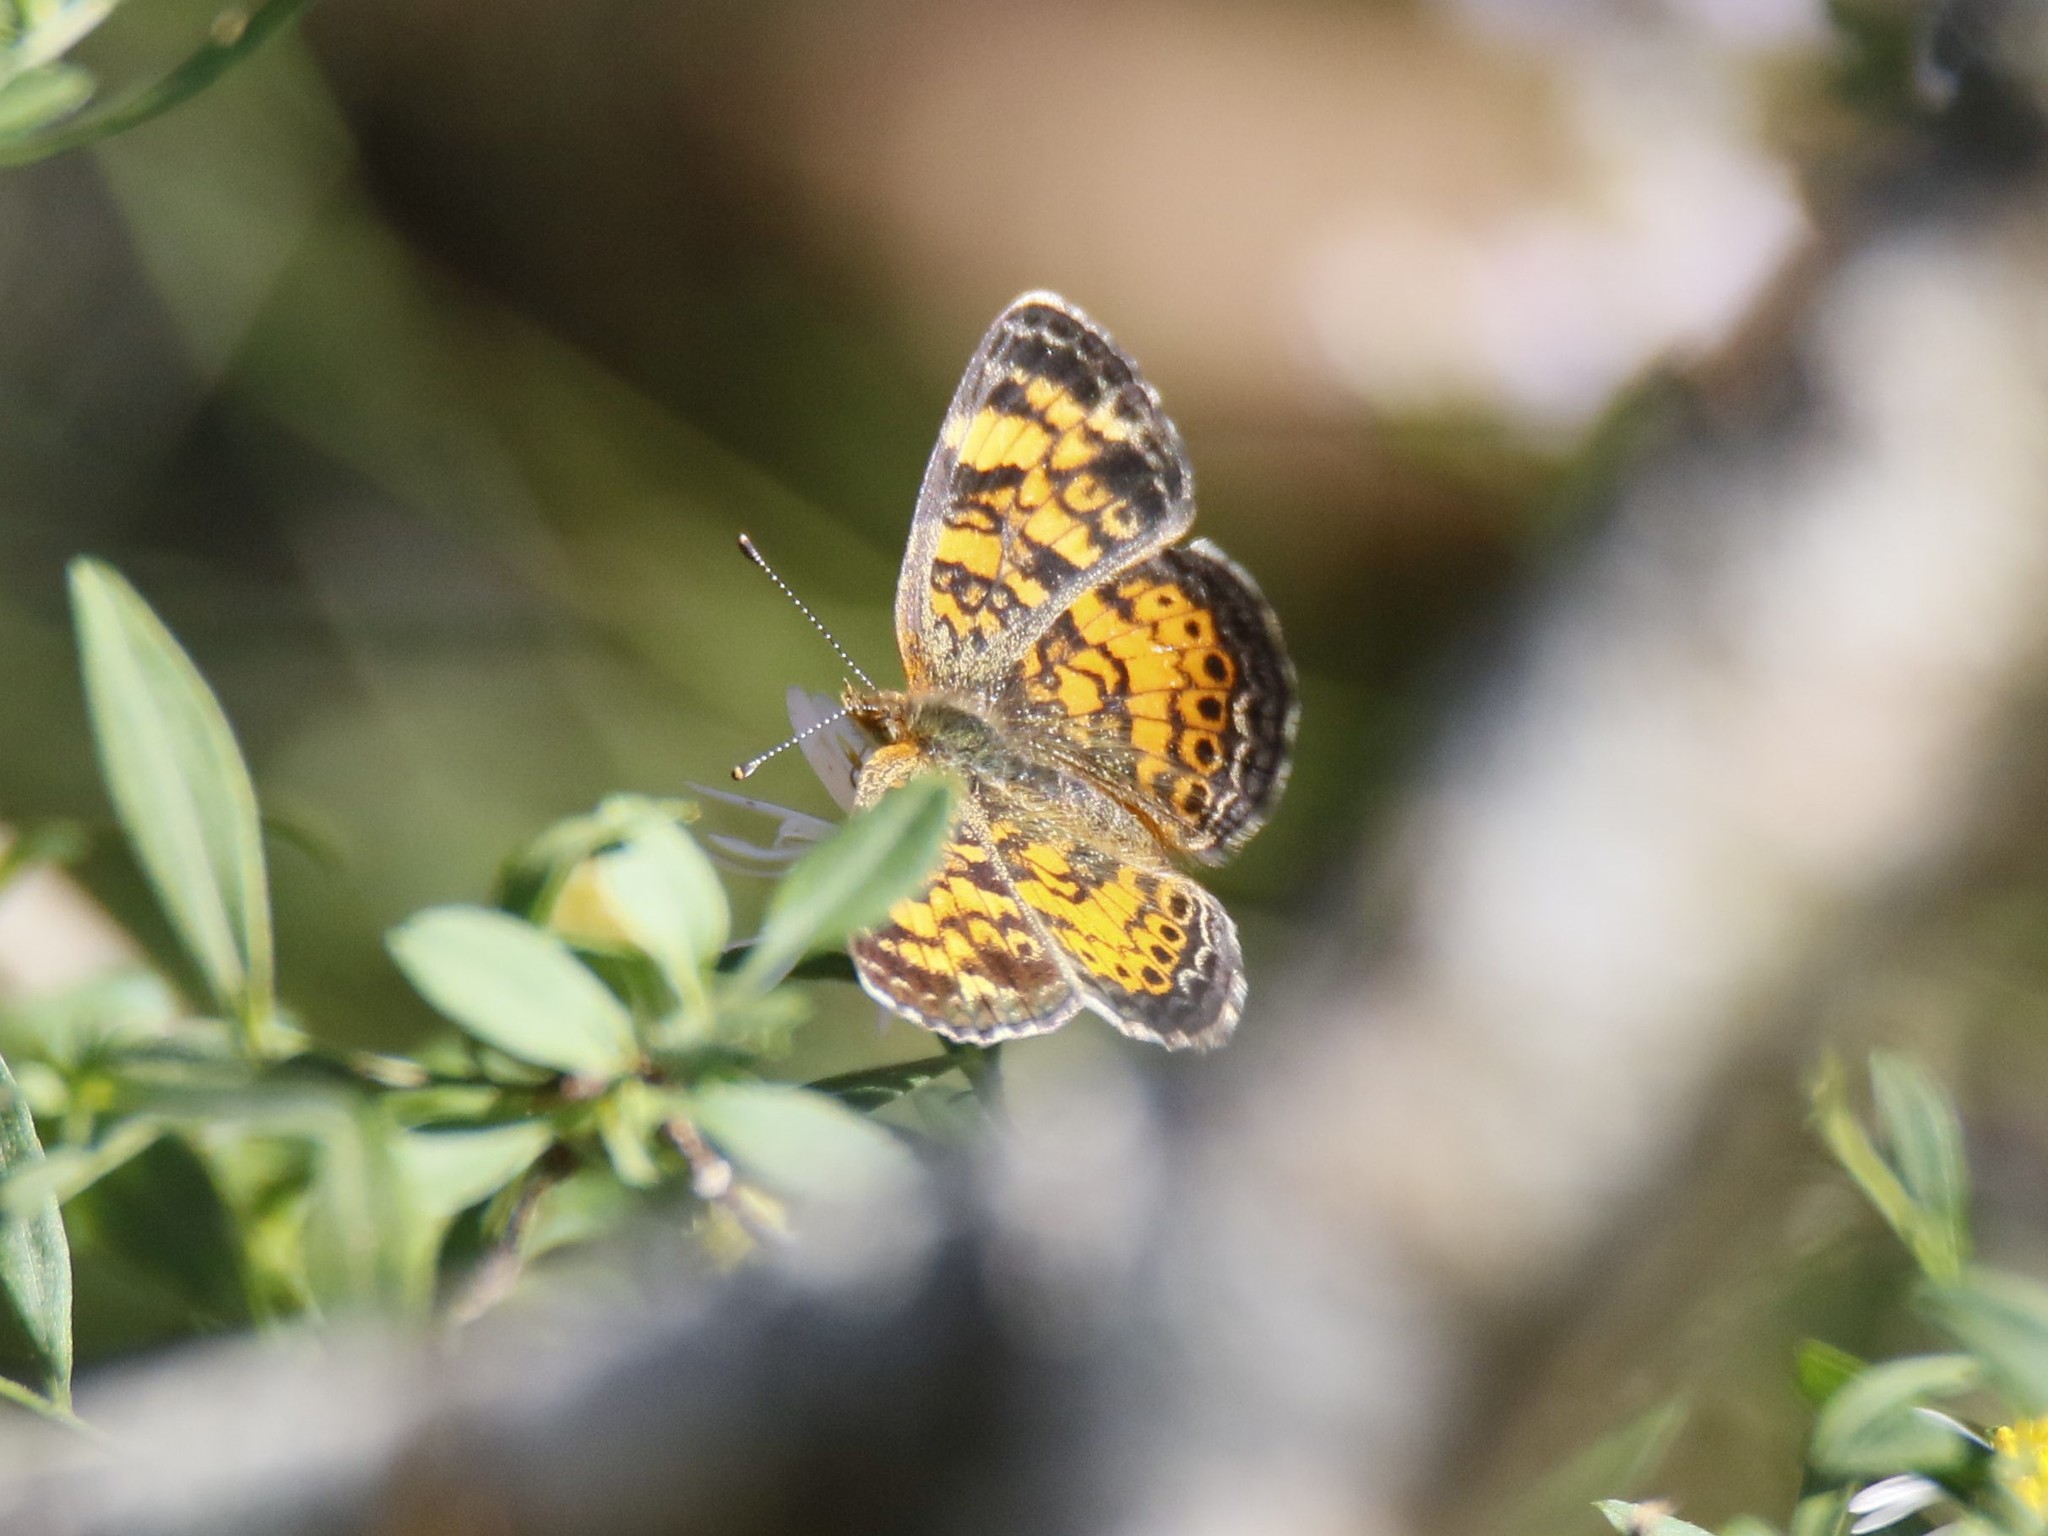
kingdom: Animalia
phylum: Arthropoda
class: Insecta
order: Lepidoptera
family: Nymphalidae
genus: Phyciodes
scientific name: Phyciodes tharos
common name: Pearl crescent
